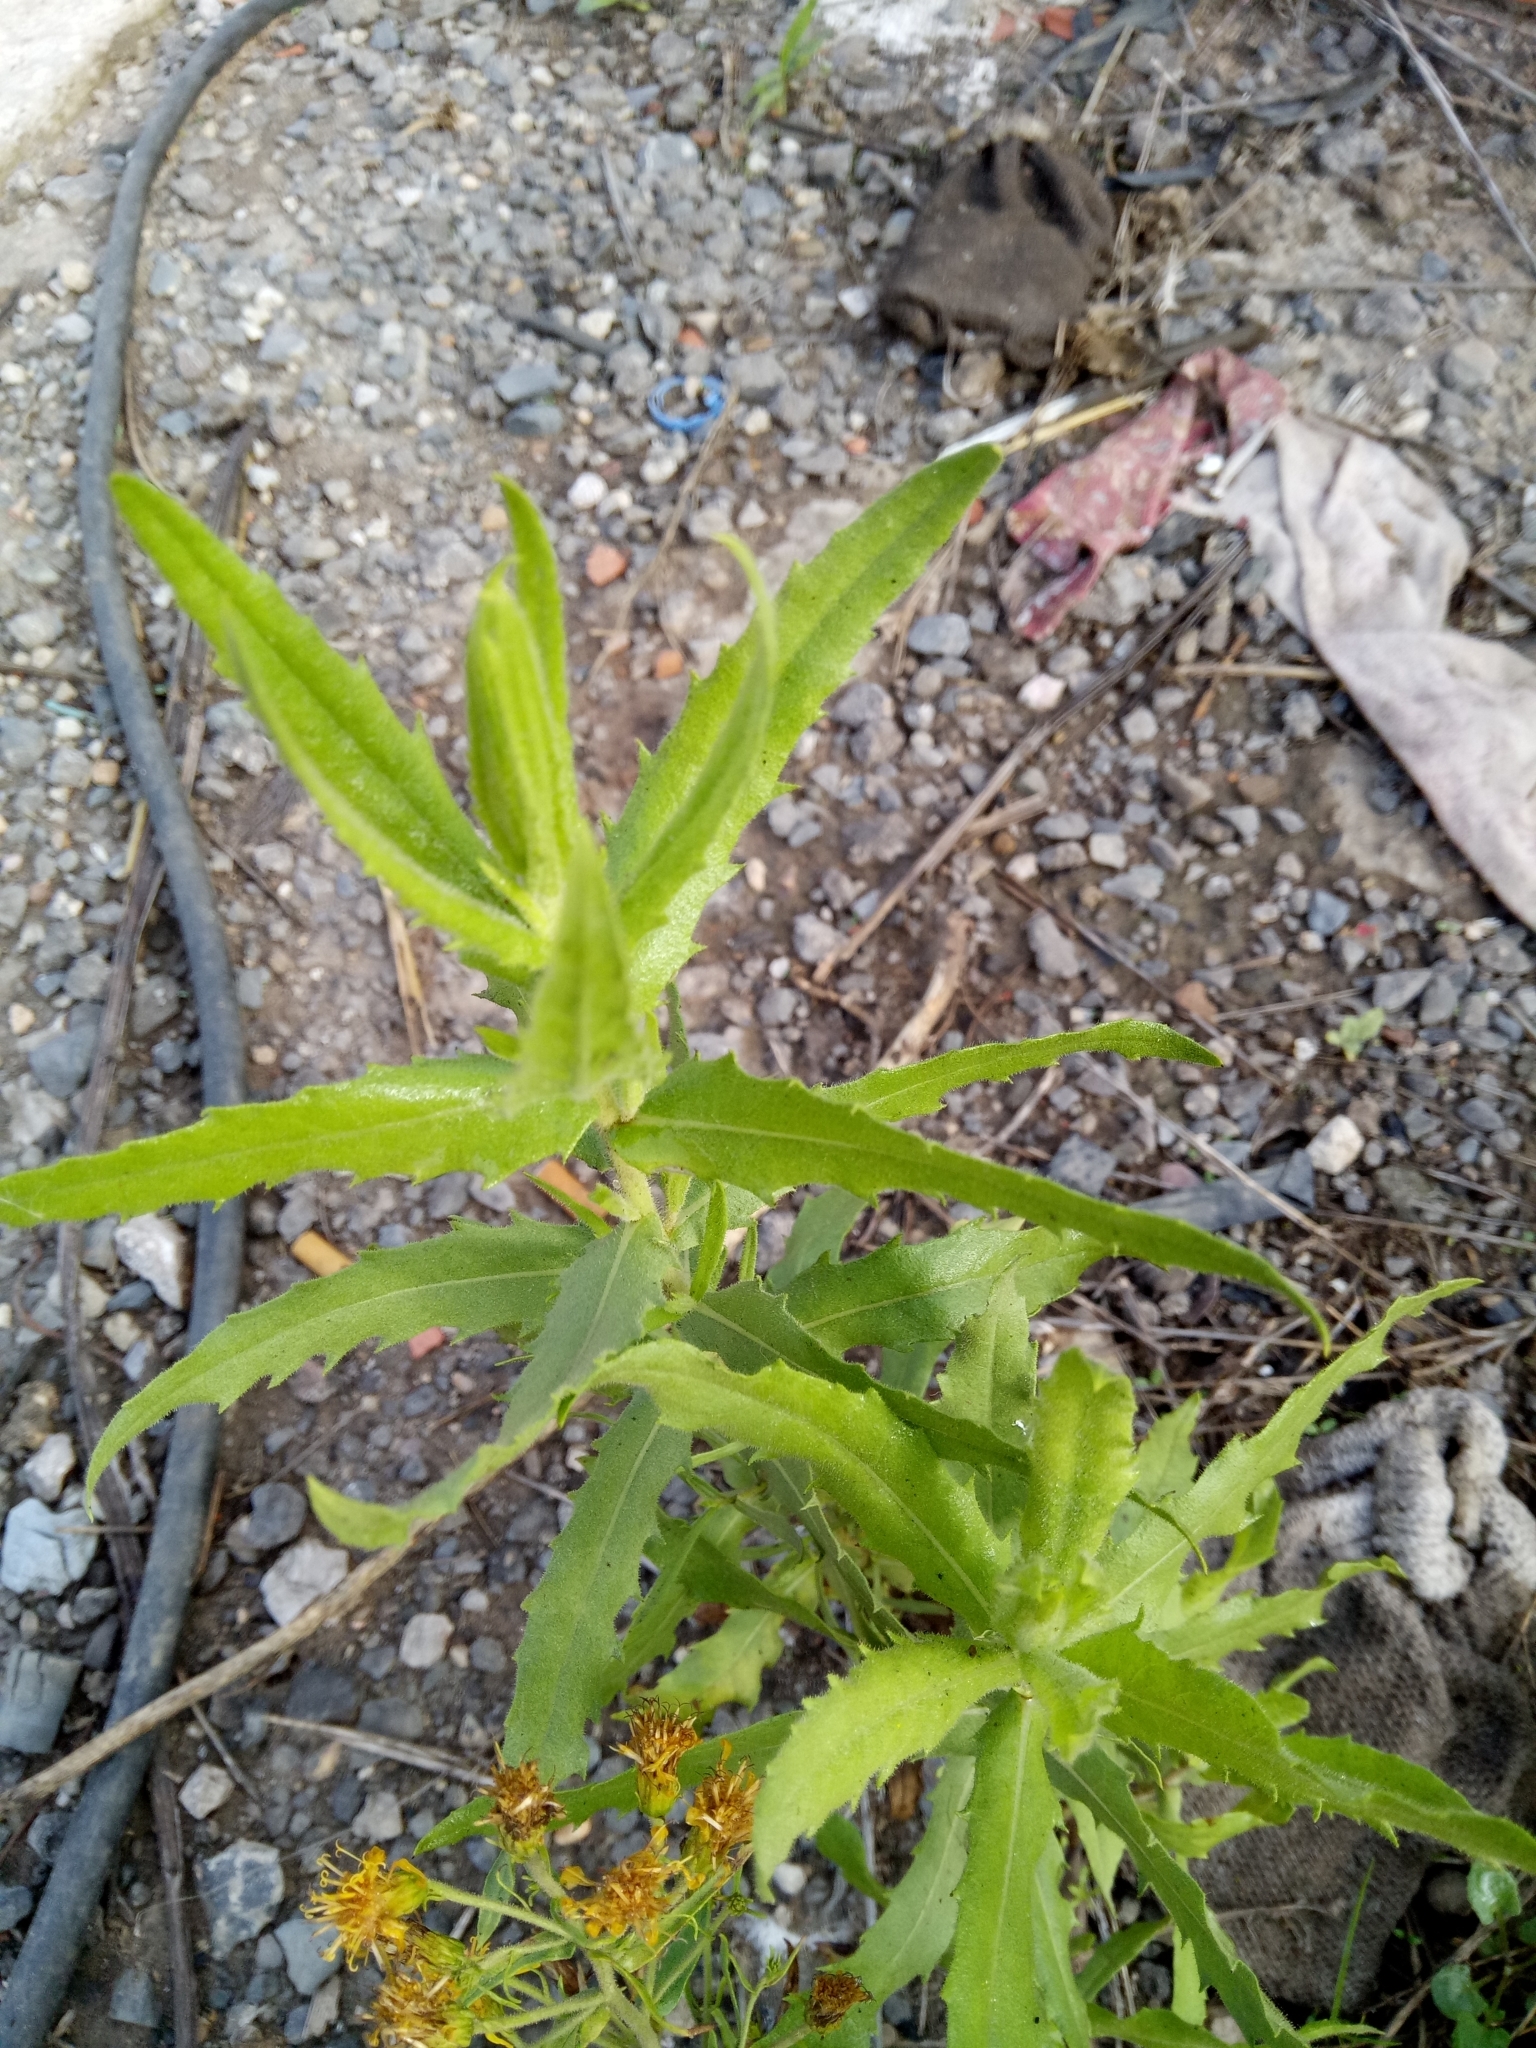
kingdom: Plantae
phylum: Tracheophyta
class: Magnoliopsida
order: Asterales
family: Asteraceae
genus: Dittrichia
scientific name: Dittrichia viscosa
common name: Woody fleabane
